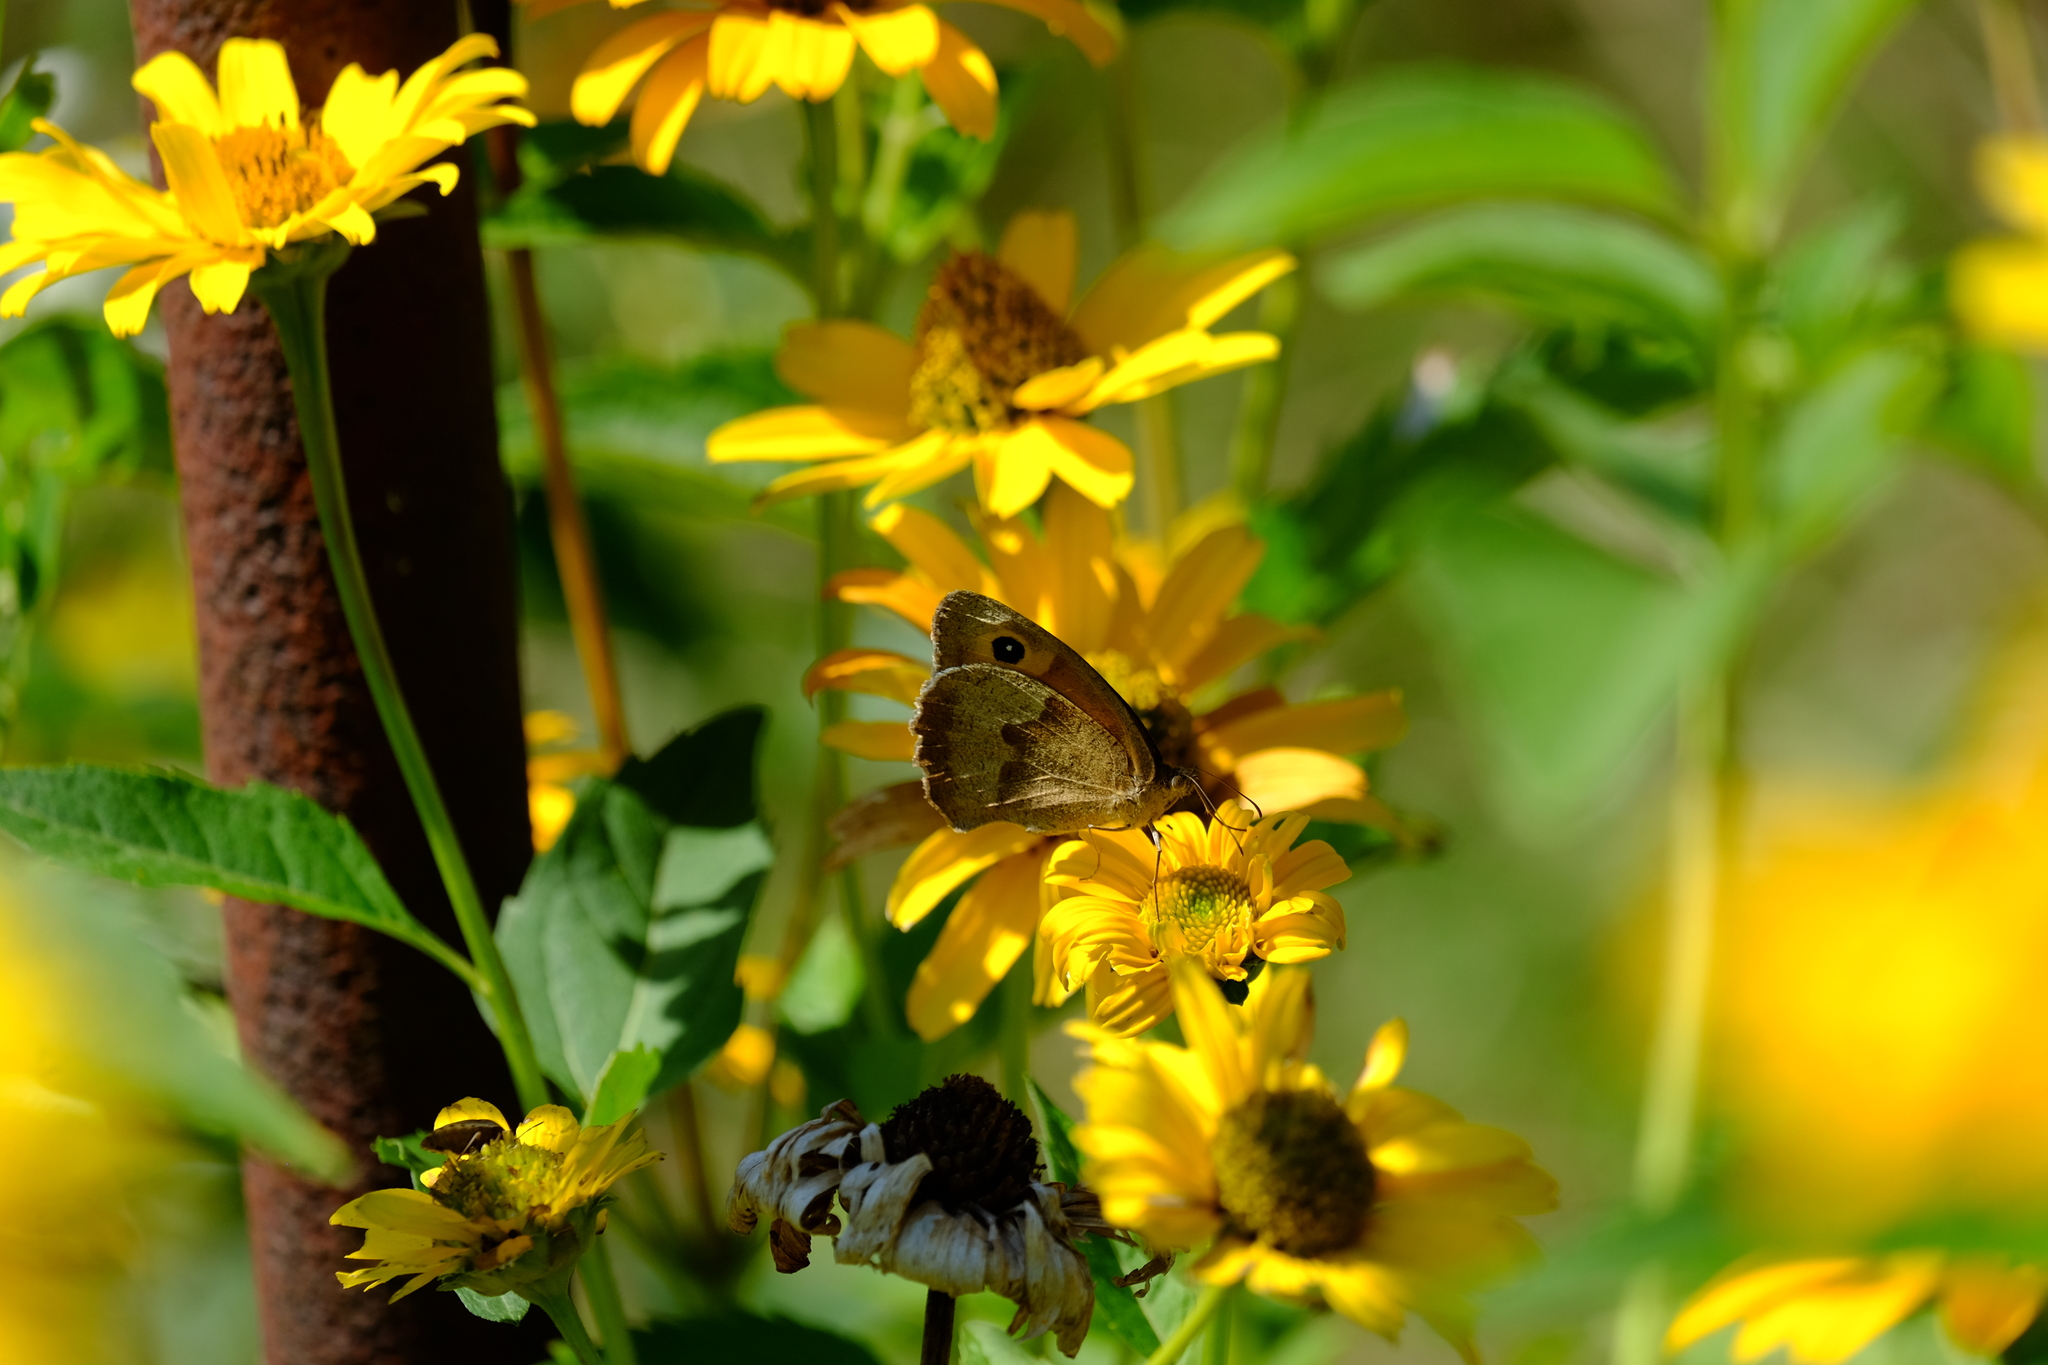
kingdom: Animalia
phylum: Arthropoda
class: Insecta
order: Lepidoptera
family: Nymphalidae
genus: Maniola
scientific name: Maniola jurtina
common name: Meadow brown
